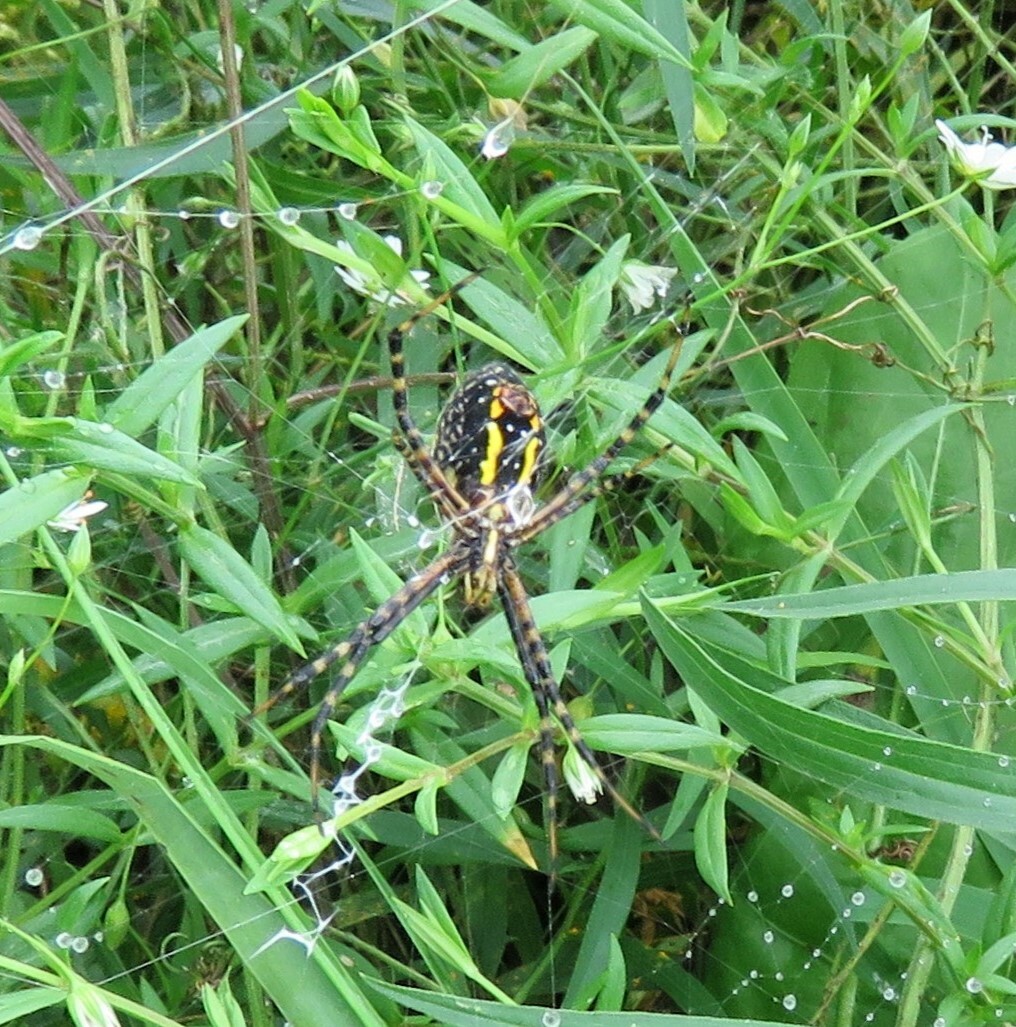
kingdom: Animalia
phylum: Arthropoda
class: Arachnida
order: Araneae
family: Araneidae
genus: Argiope
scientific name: Argiope trifasciata
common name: Banded garden spider
